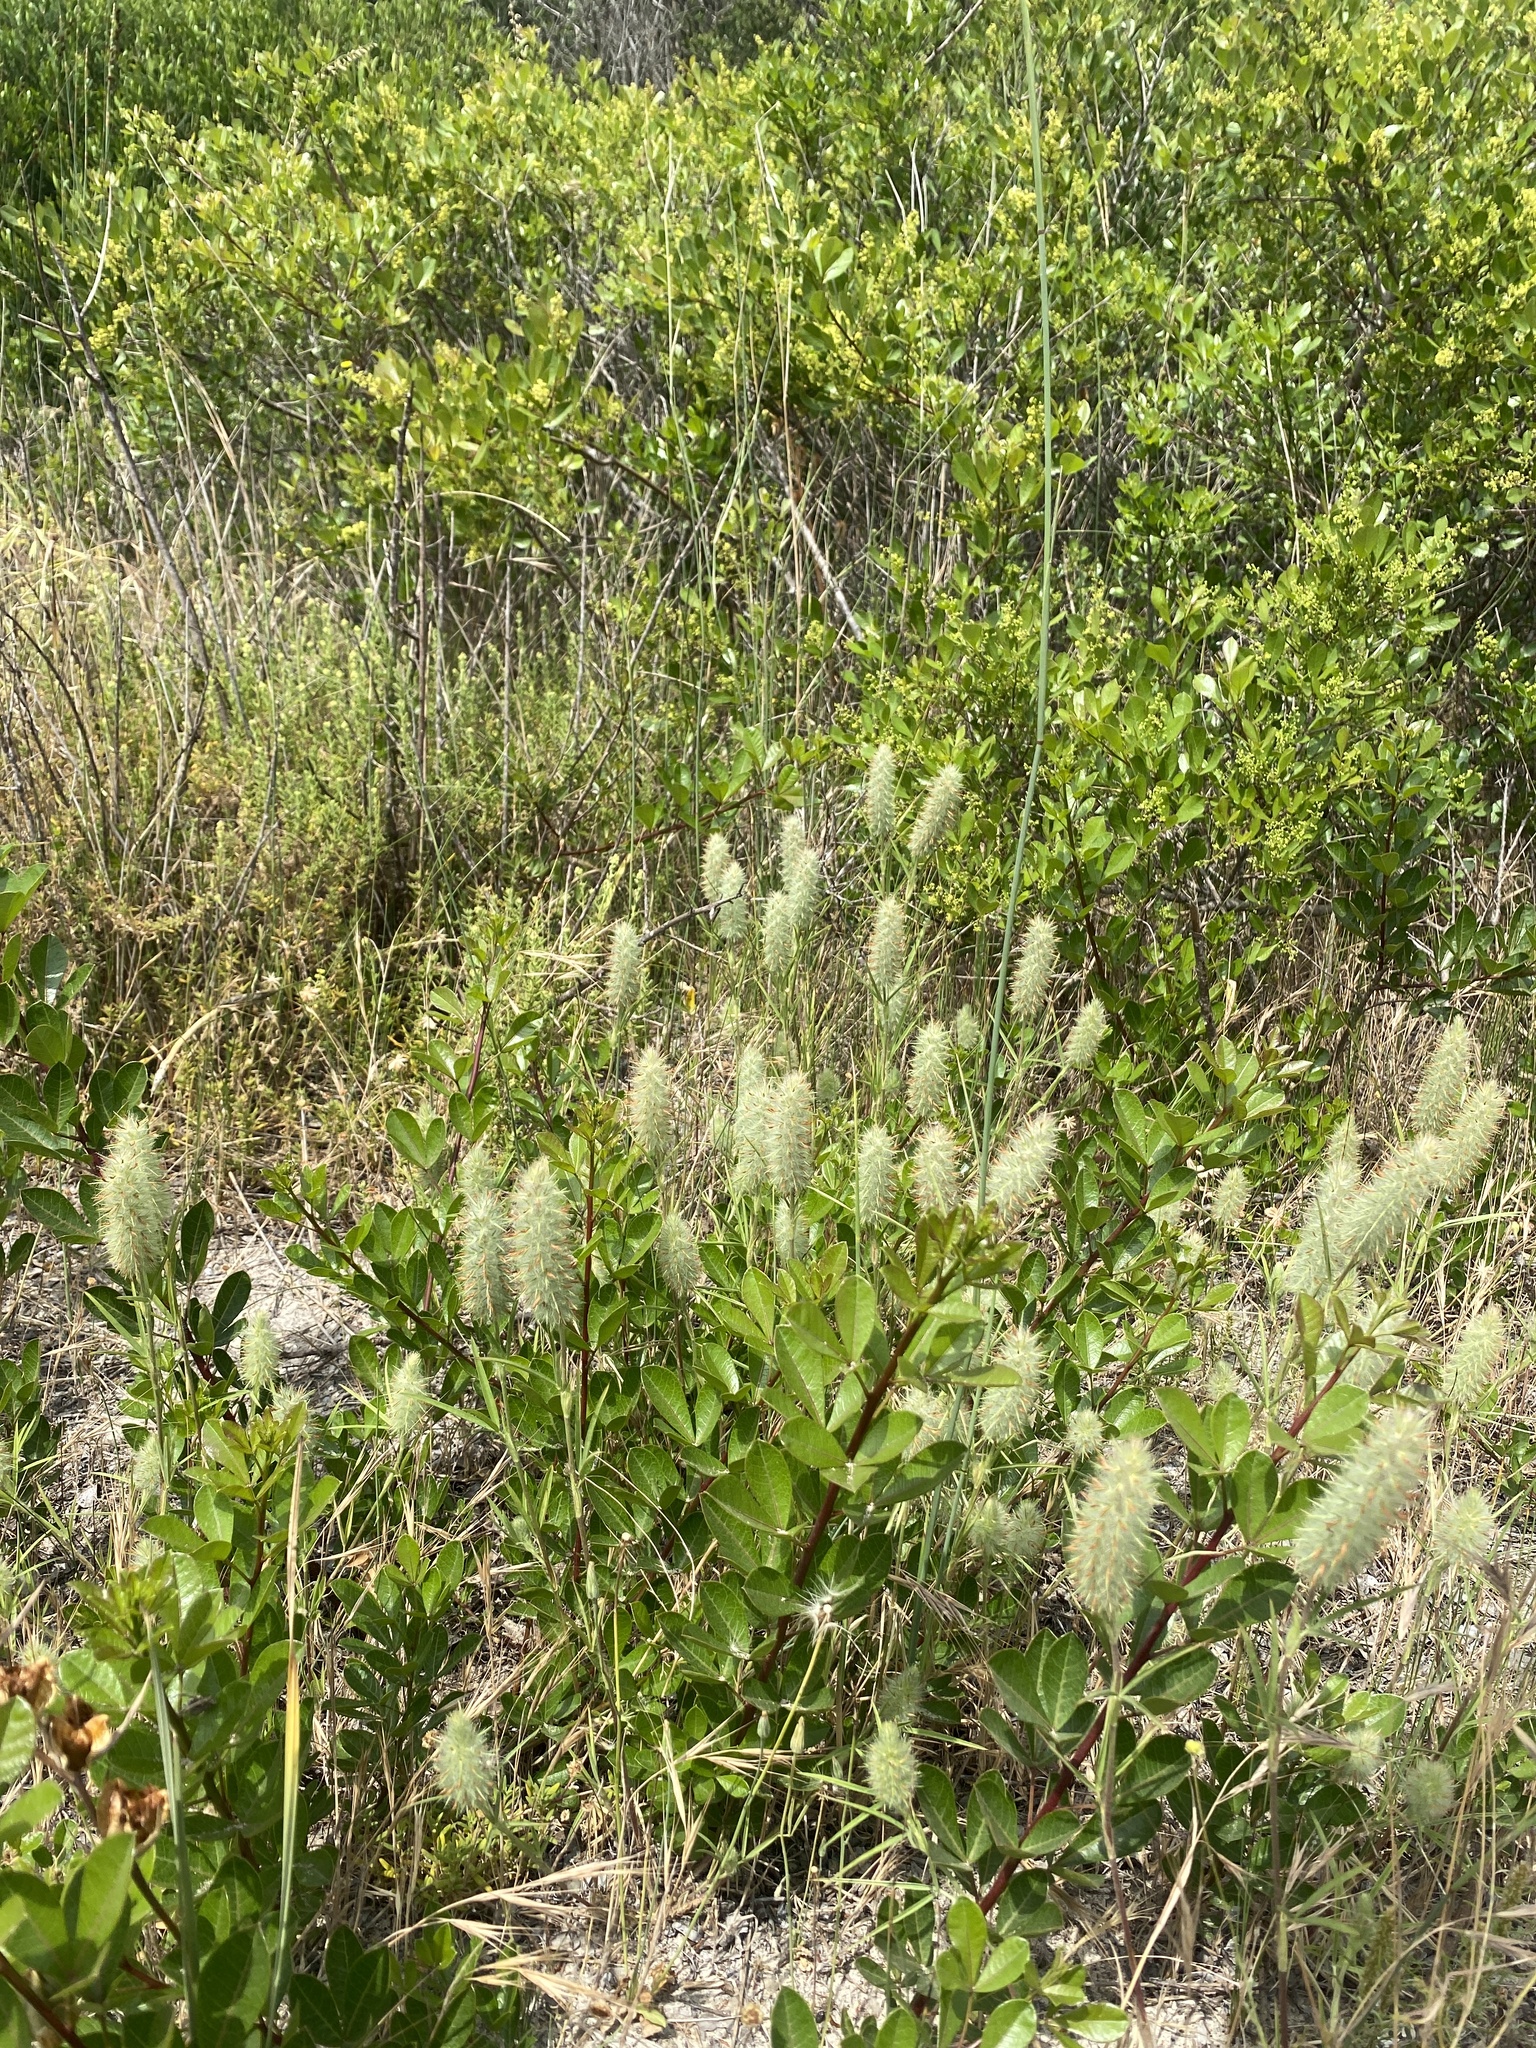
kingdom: Plantae
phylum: Tracheophyta
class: Magnoliopsida
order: Fabales
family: Fabaceae
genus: Trifolium
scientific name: Trifolium angustifolium
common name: Narrow clover
